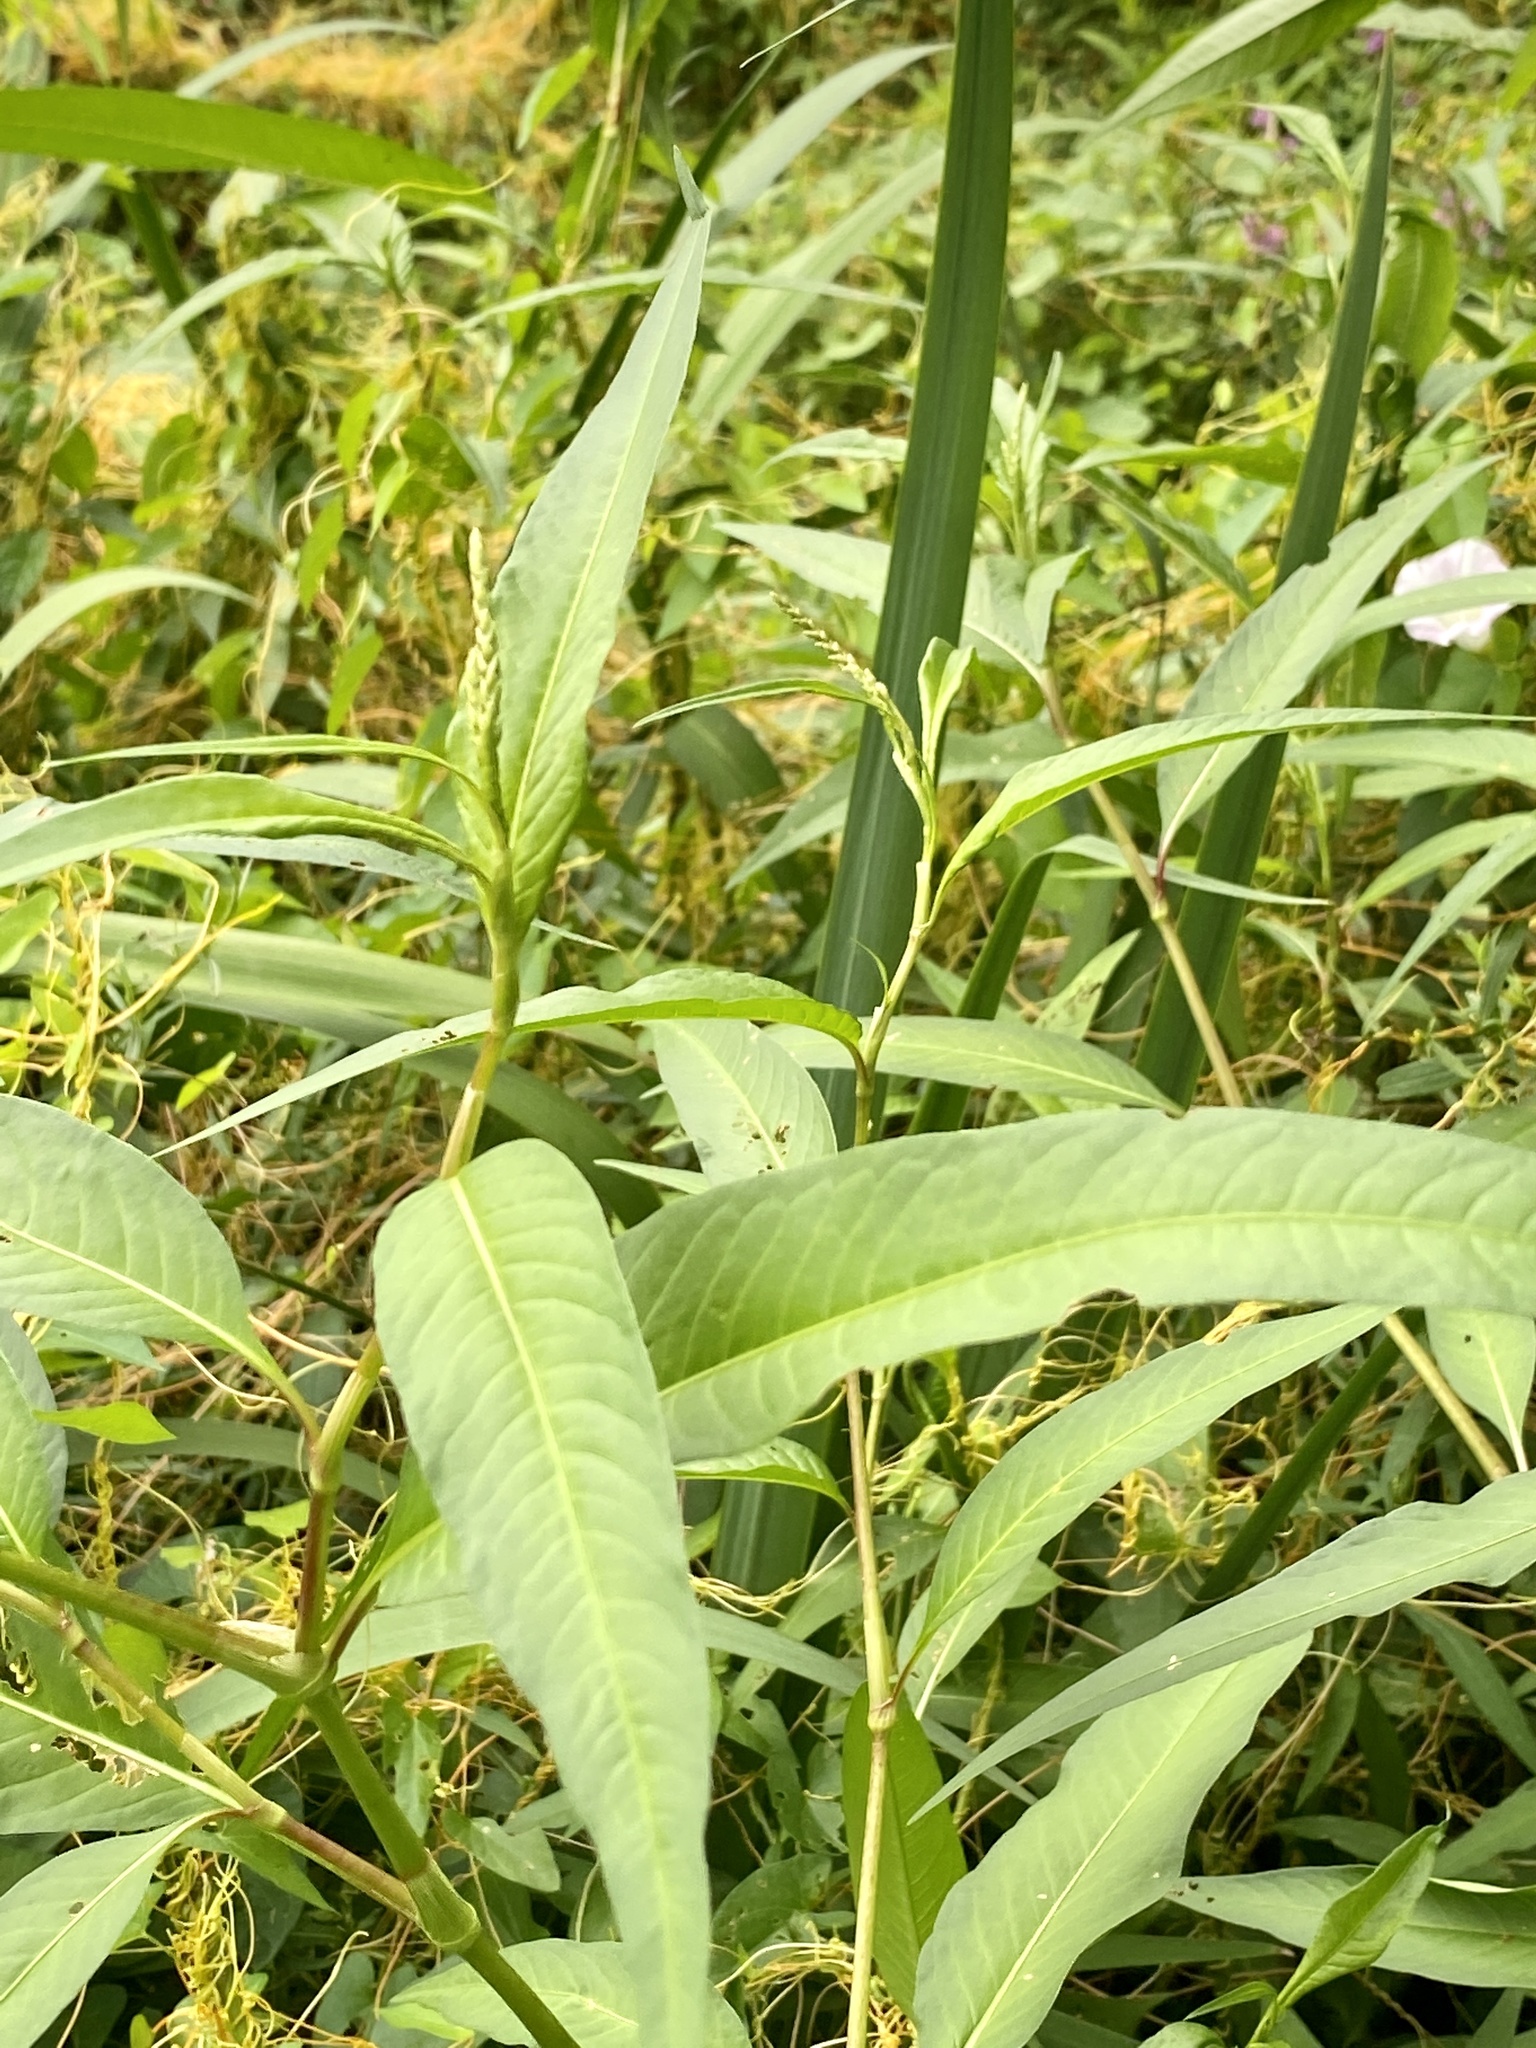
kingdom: Plantae
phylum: Tracheophyta
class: Magnoliopsida
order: Caryophyllales
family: Polygonaceae
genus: Persicaria
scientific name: Persicaria pensylvanica
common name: Pinkweed
